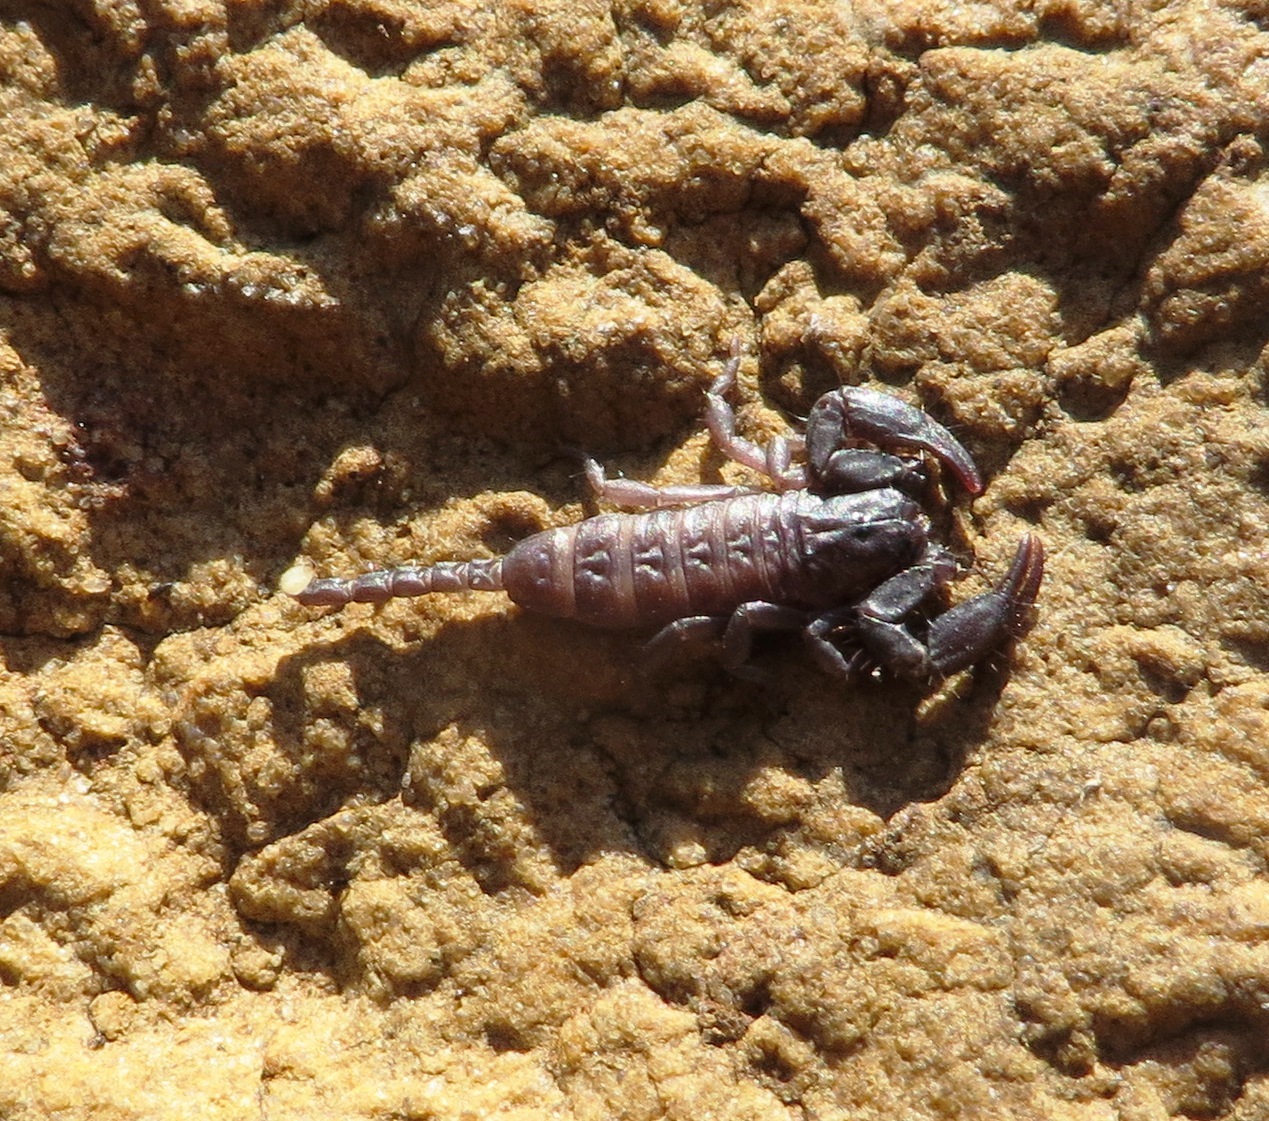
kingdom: Animalia
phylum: Arthropoda
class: Arachnida
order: Scorpiones
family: Hormuridae
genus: Opisthacanthus
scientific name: Opisthacanthus capensis
